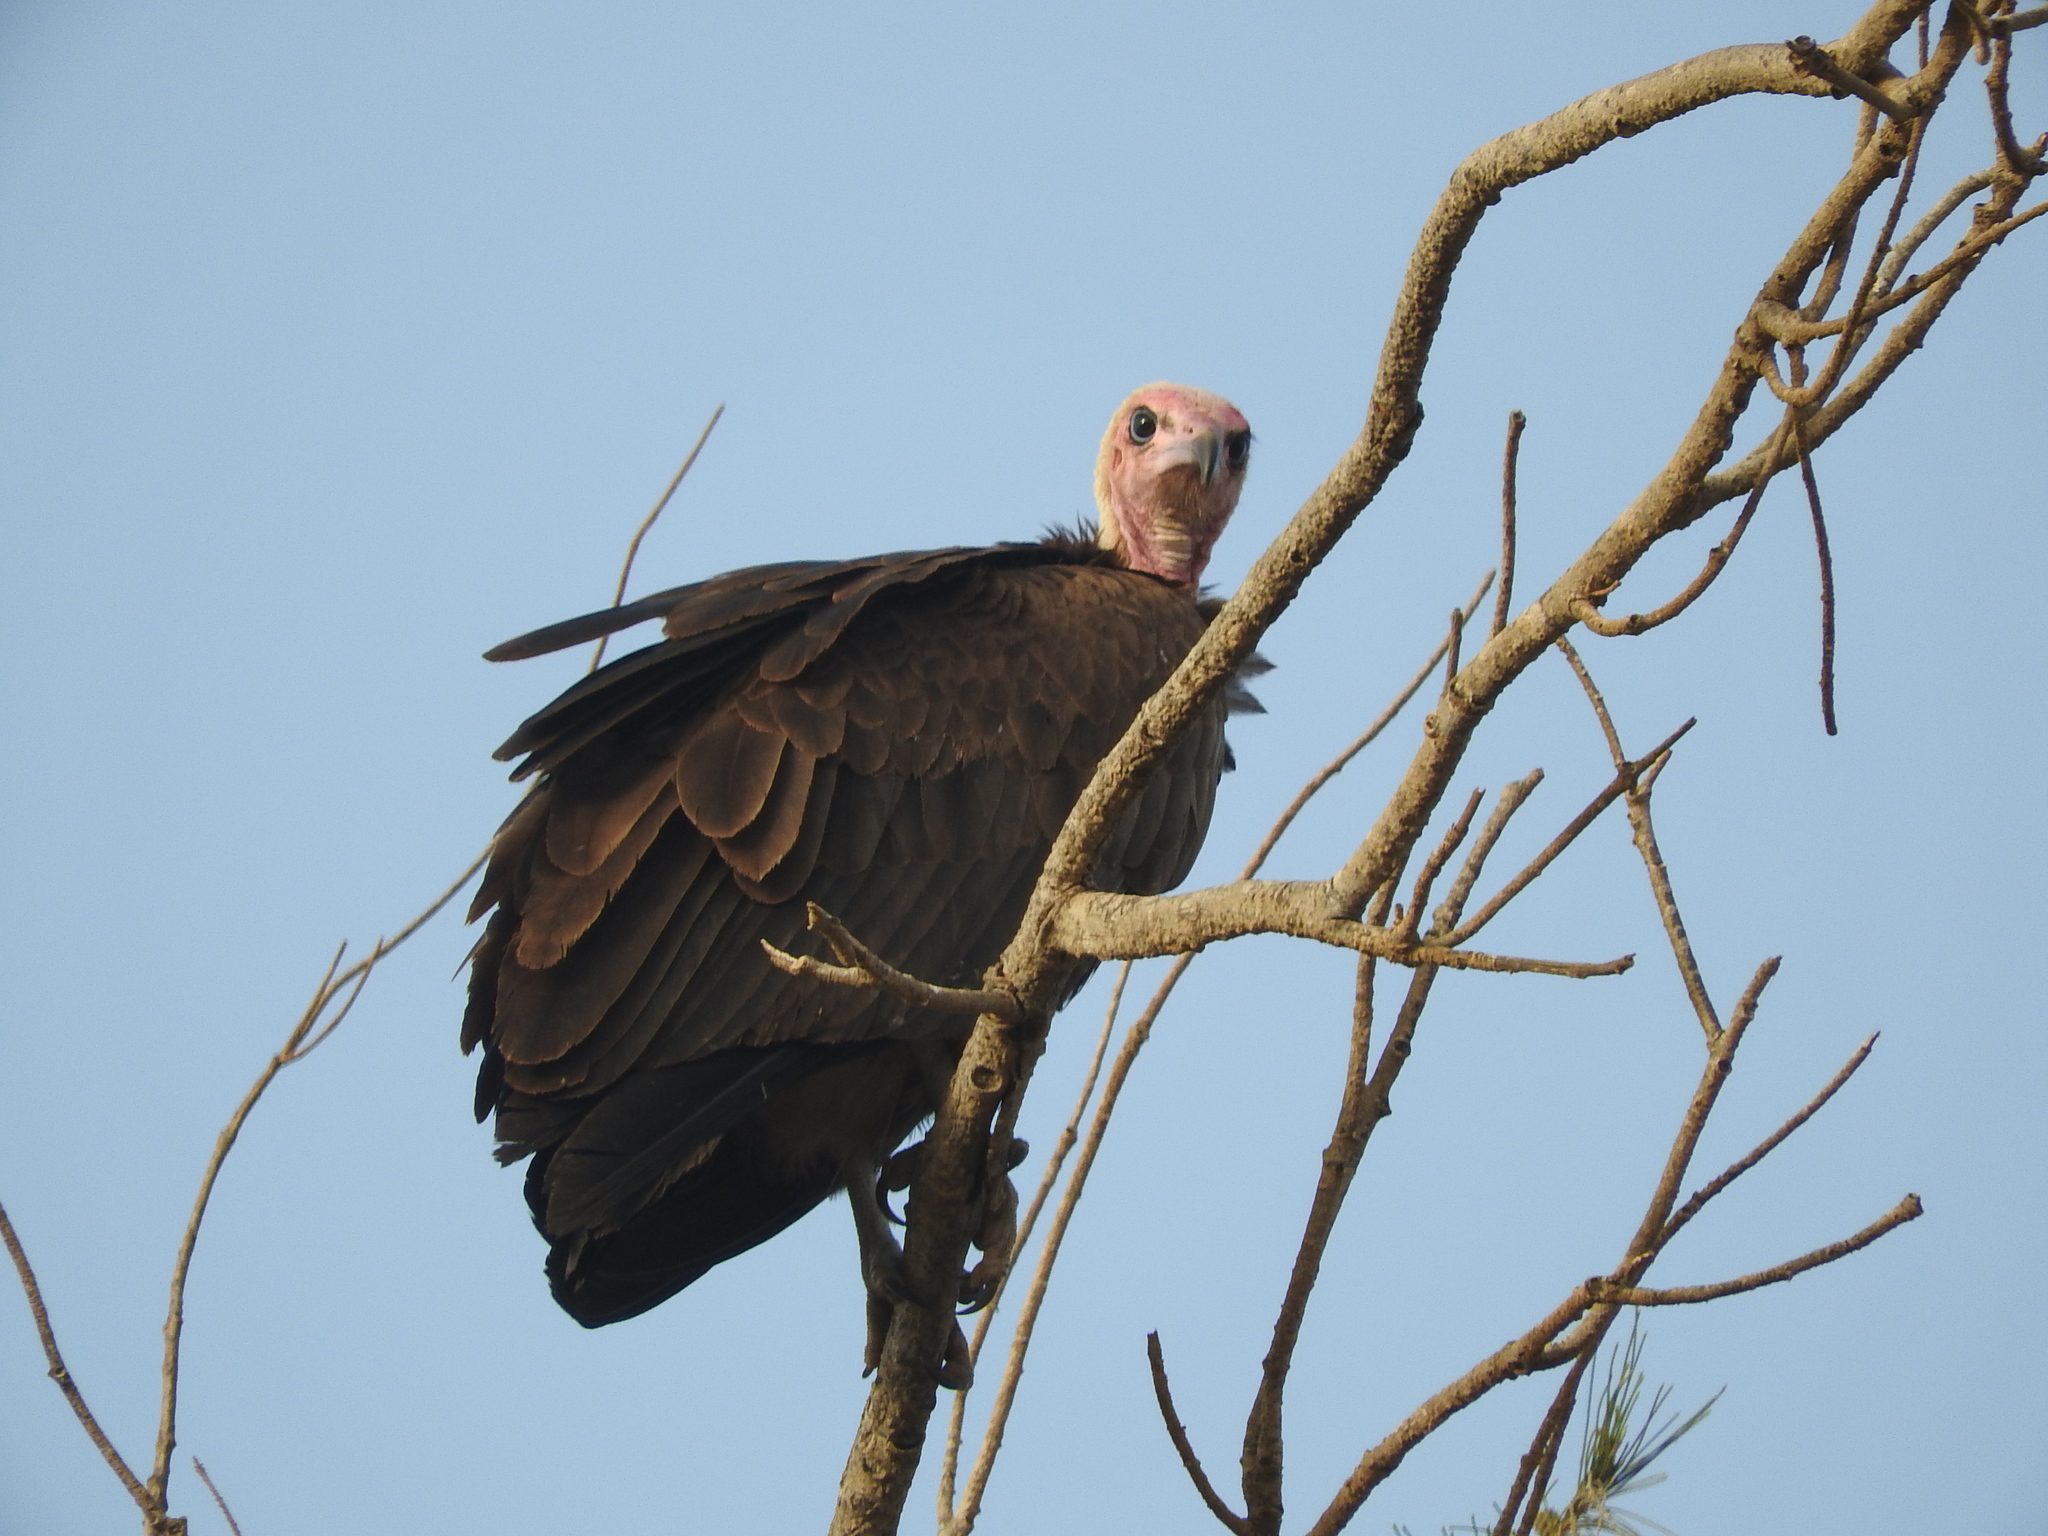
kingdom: Animalia
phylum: Chordata
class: Aves
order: Accipitriformes
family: Accipitridae
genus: Necrosyrtes
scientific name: Necrosyrtes monachus
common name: Hooded vulture
